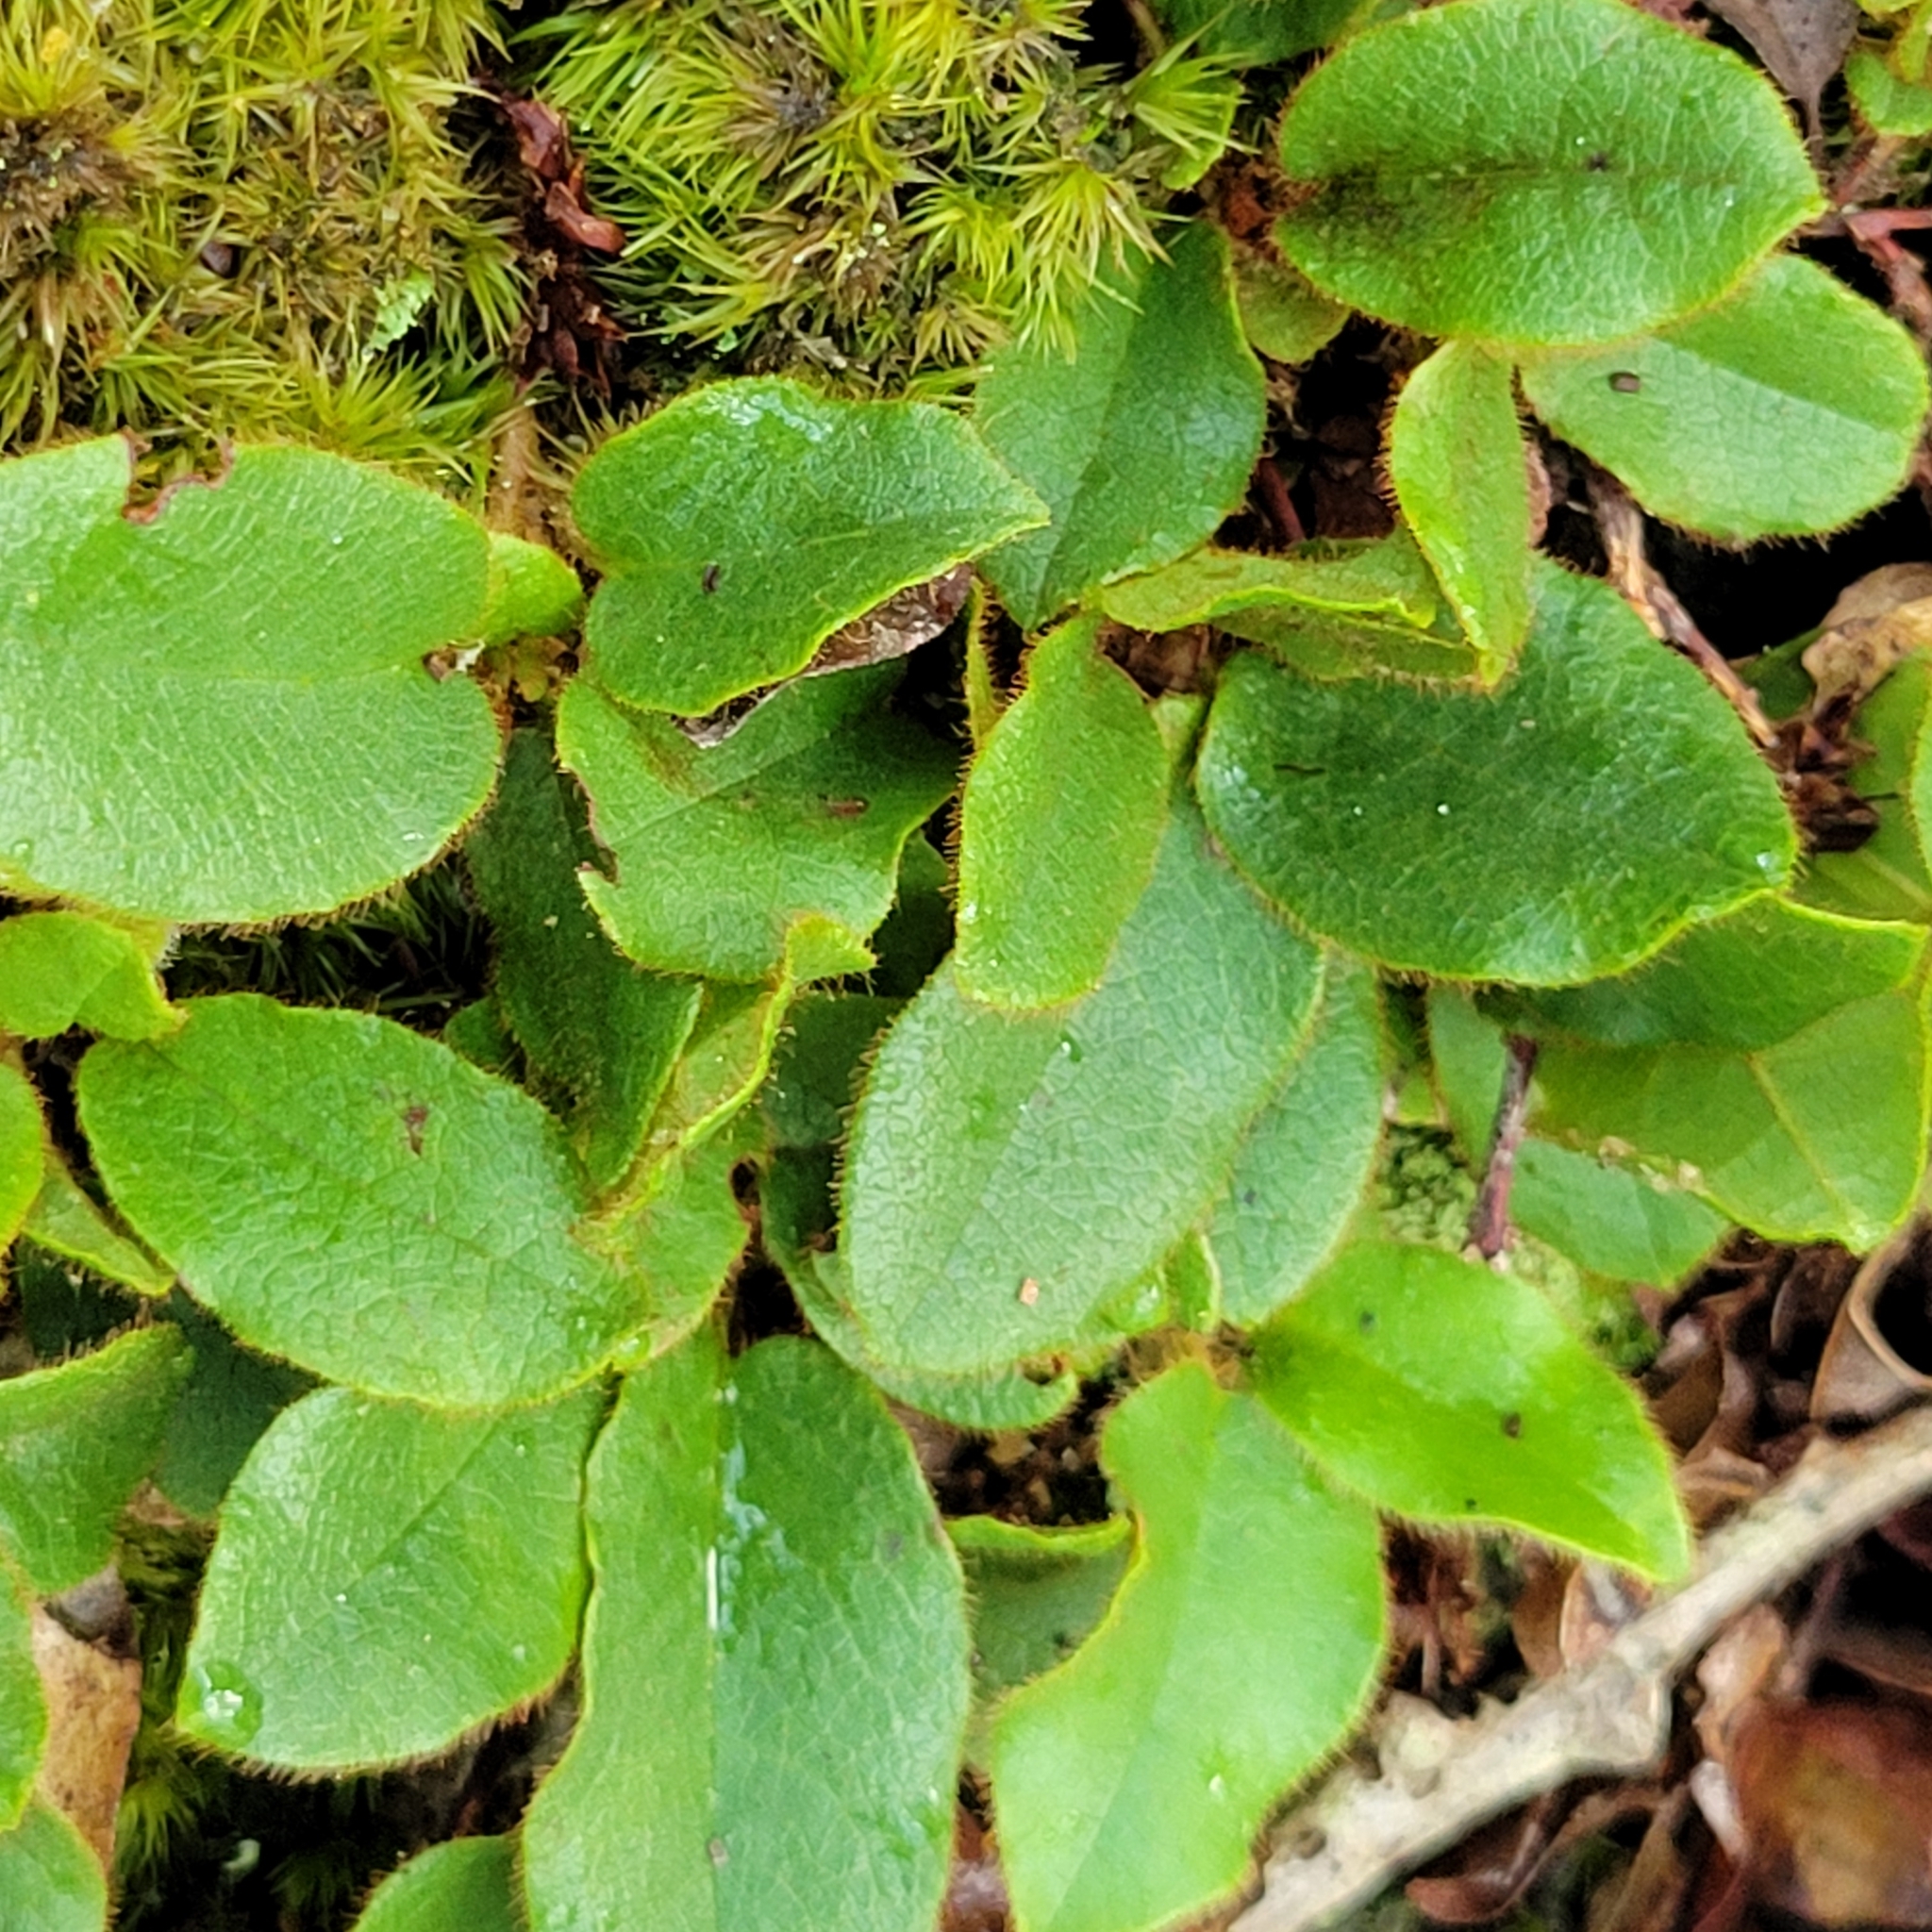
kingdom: Plantae
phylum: Tracheophyta
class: Magnoliopsida
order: Ericales
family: Ericaceae
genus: Epigaea
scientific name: Epigaea repens
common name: Gravelroot
